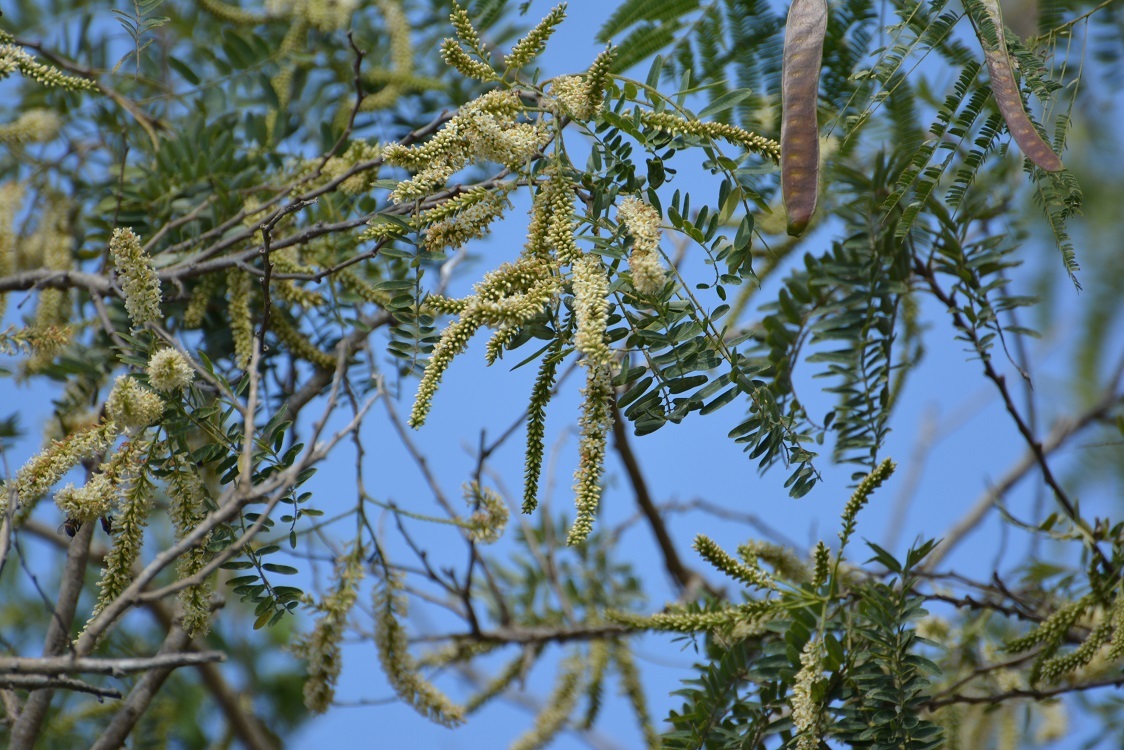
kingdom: Plantae
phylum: Tracheophyta
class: Magnoliopsida
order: Fabales
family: Fabaceae
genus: Eysenhardtia
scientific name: Eysenhardtia adenostylis
